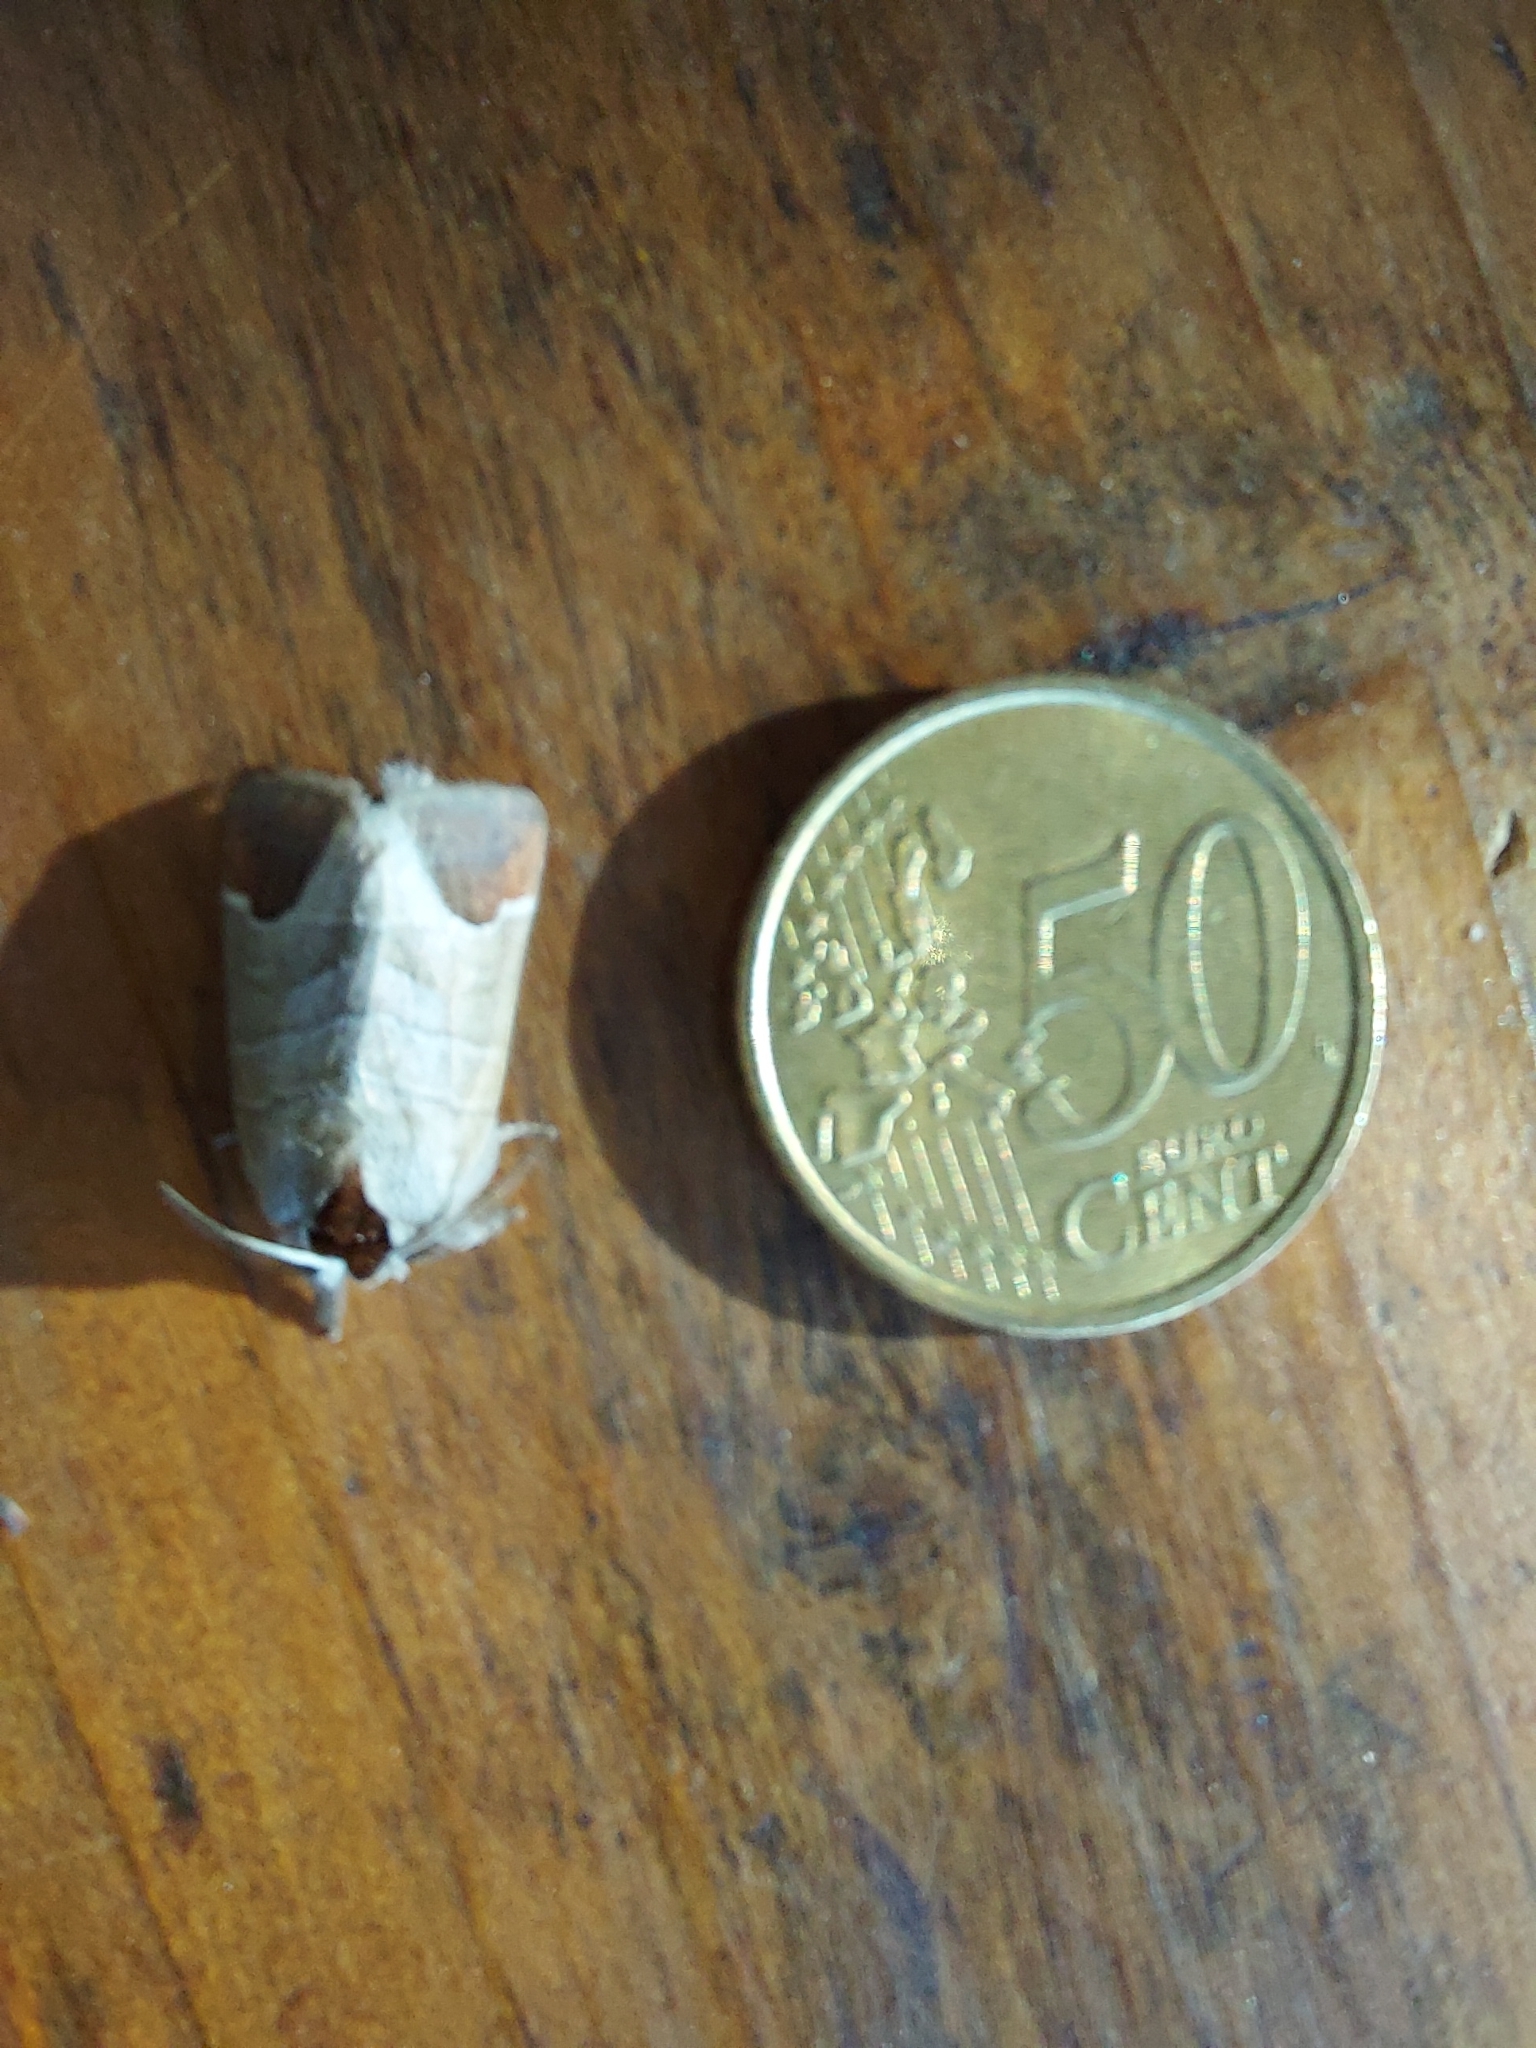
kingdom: Animalia
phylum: Arthropoda
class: Insecta
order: Lepidoptera
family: Notodontidae
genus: Clostera
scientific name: Clostera curtula
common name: Chocolate-tip
